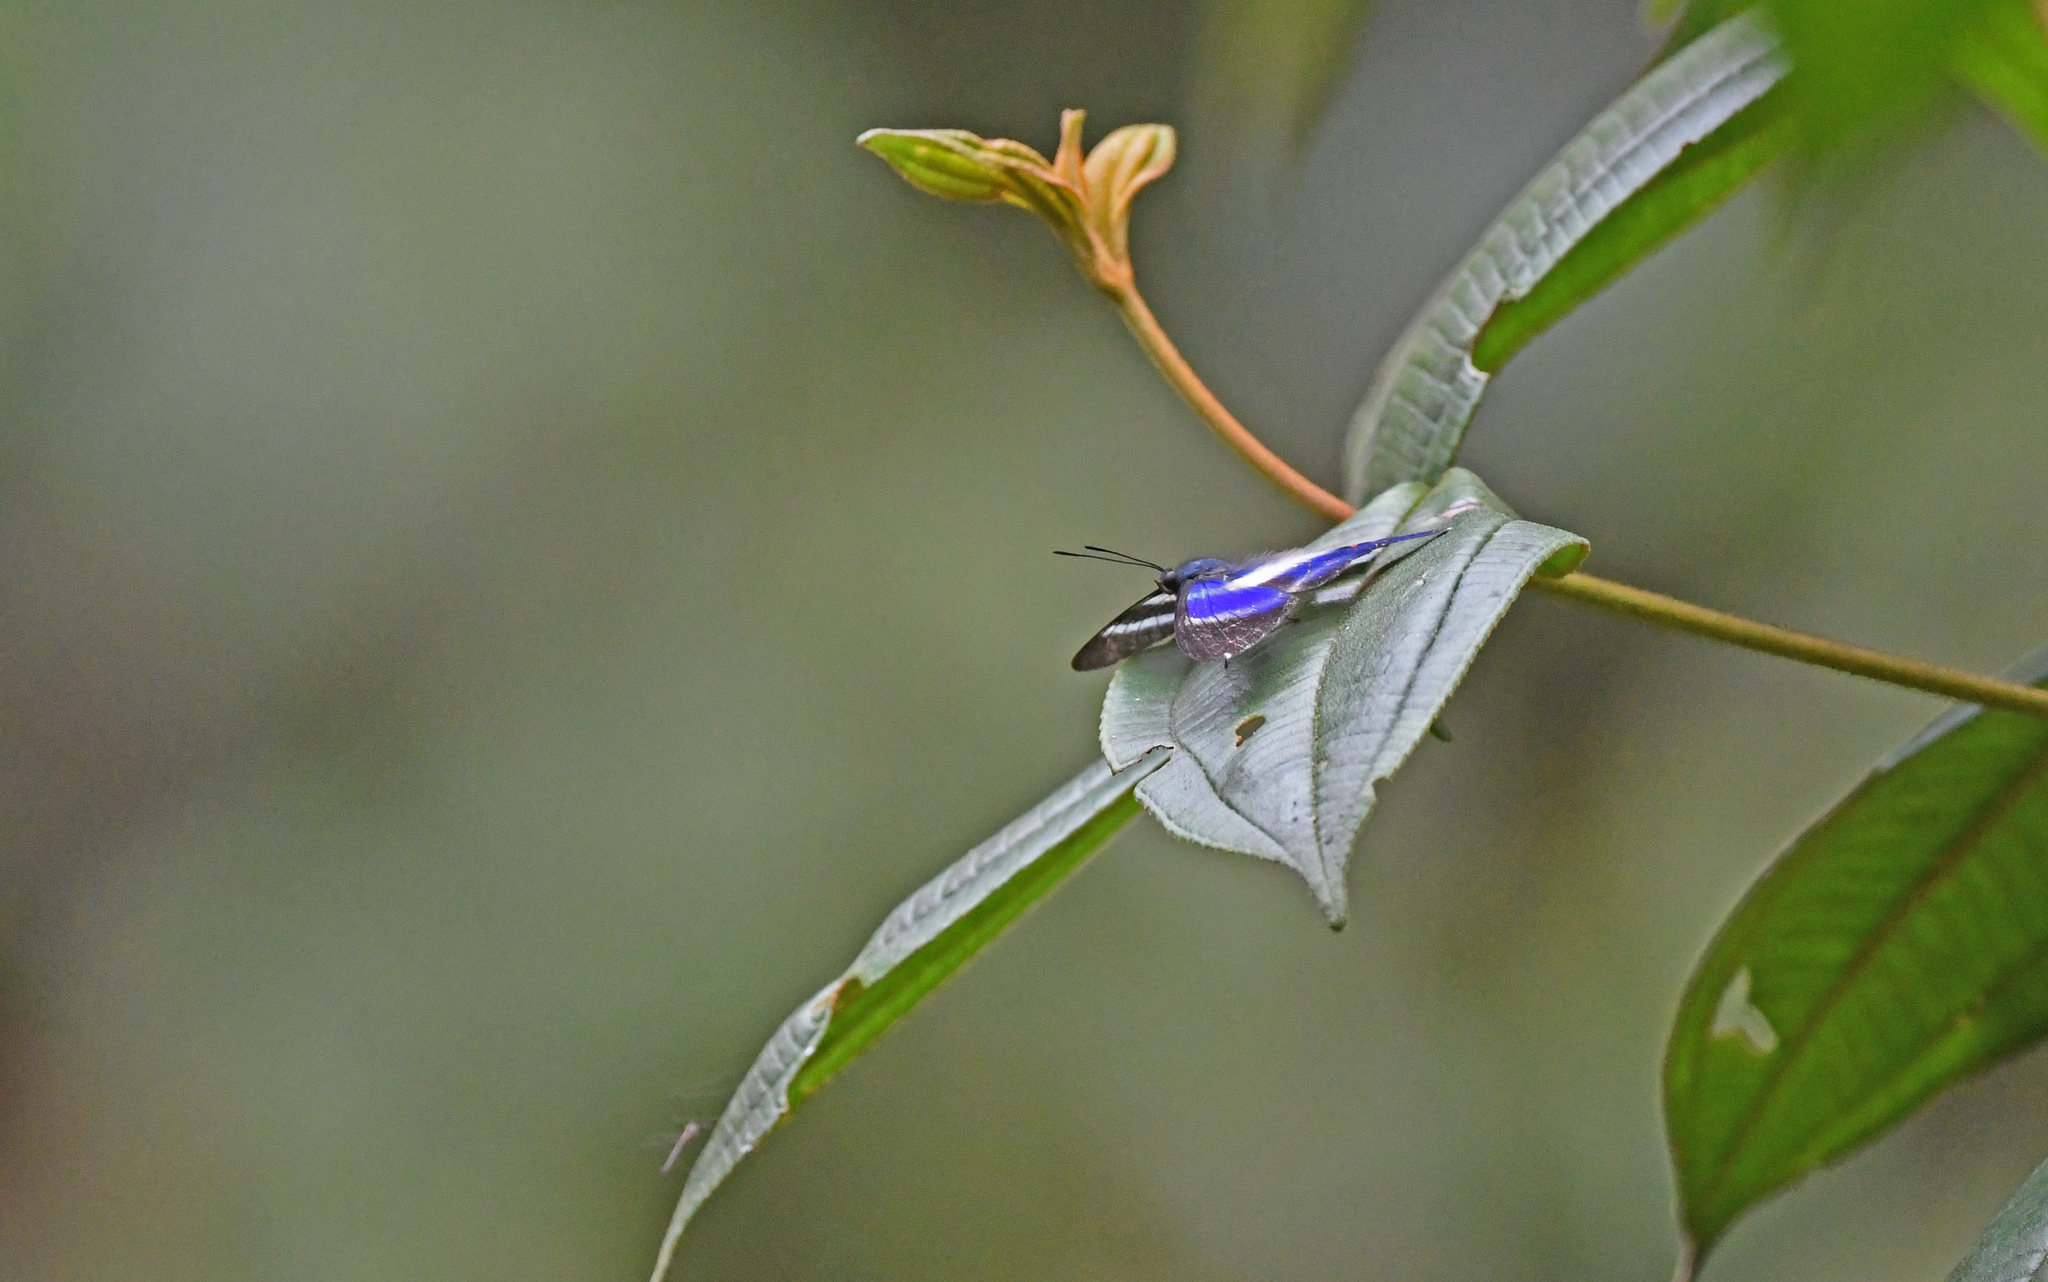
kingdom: Animalia
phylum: Arthropoda
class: Insecta
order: Lepidoptera
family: Riodinidae
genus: Rhetus
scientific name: Rhetus dysonii
